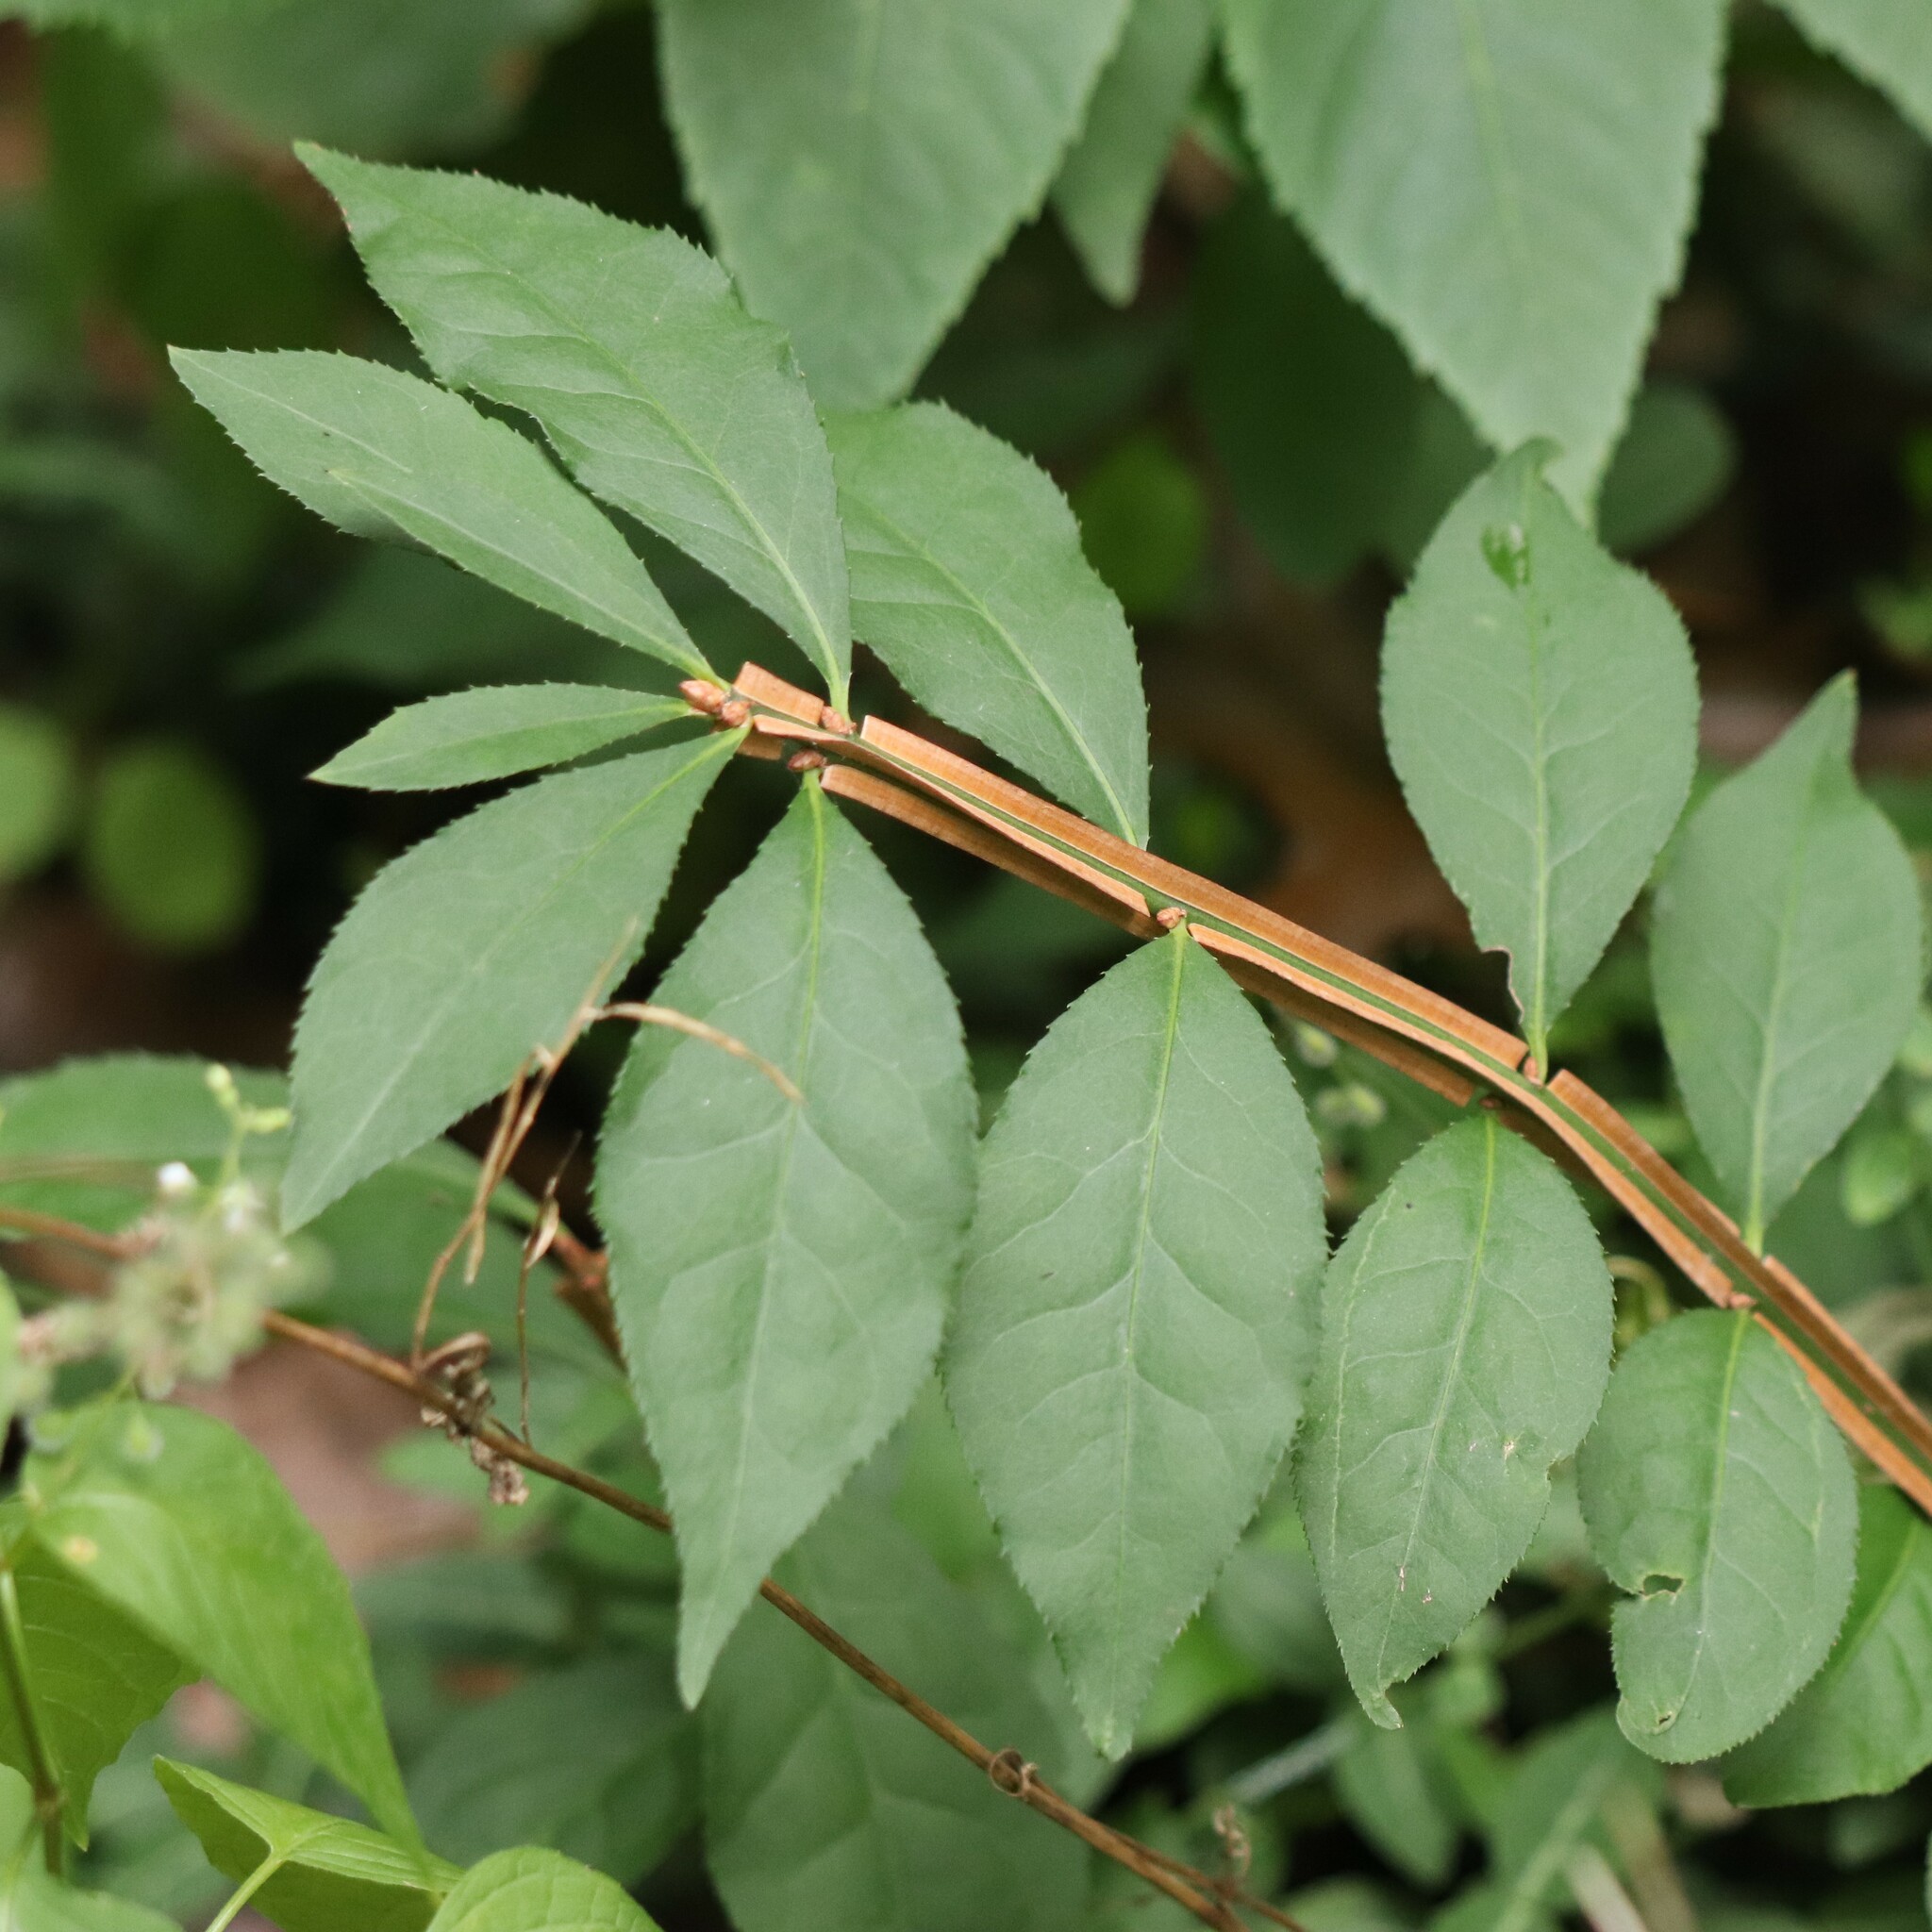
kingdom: Plantae
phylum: Tracheophyta
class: Magnoliopsida
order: Celastrales
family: Celastraceae
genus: Euonymus
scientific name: Euonymus alatus
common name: Winged euonymus
